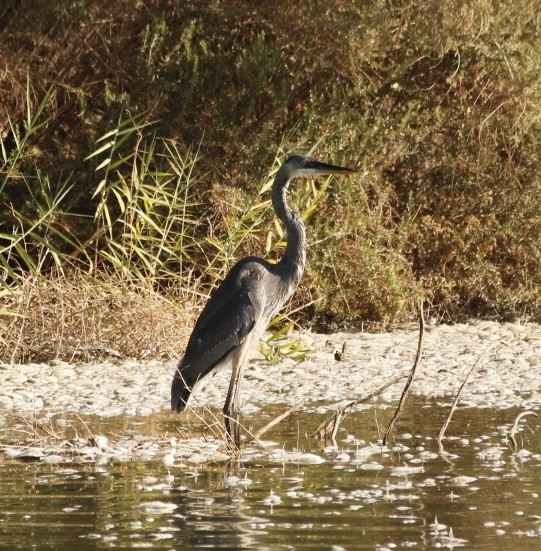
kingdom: Animalia
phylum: Chordata
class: Aves
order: Pelecaniformes
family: Ardeidae
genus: Ardea
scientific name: Ardea herodias
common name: Great blue heron
